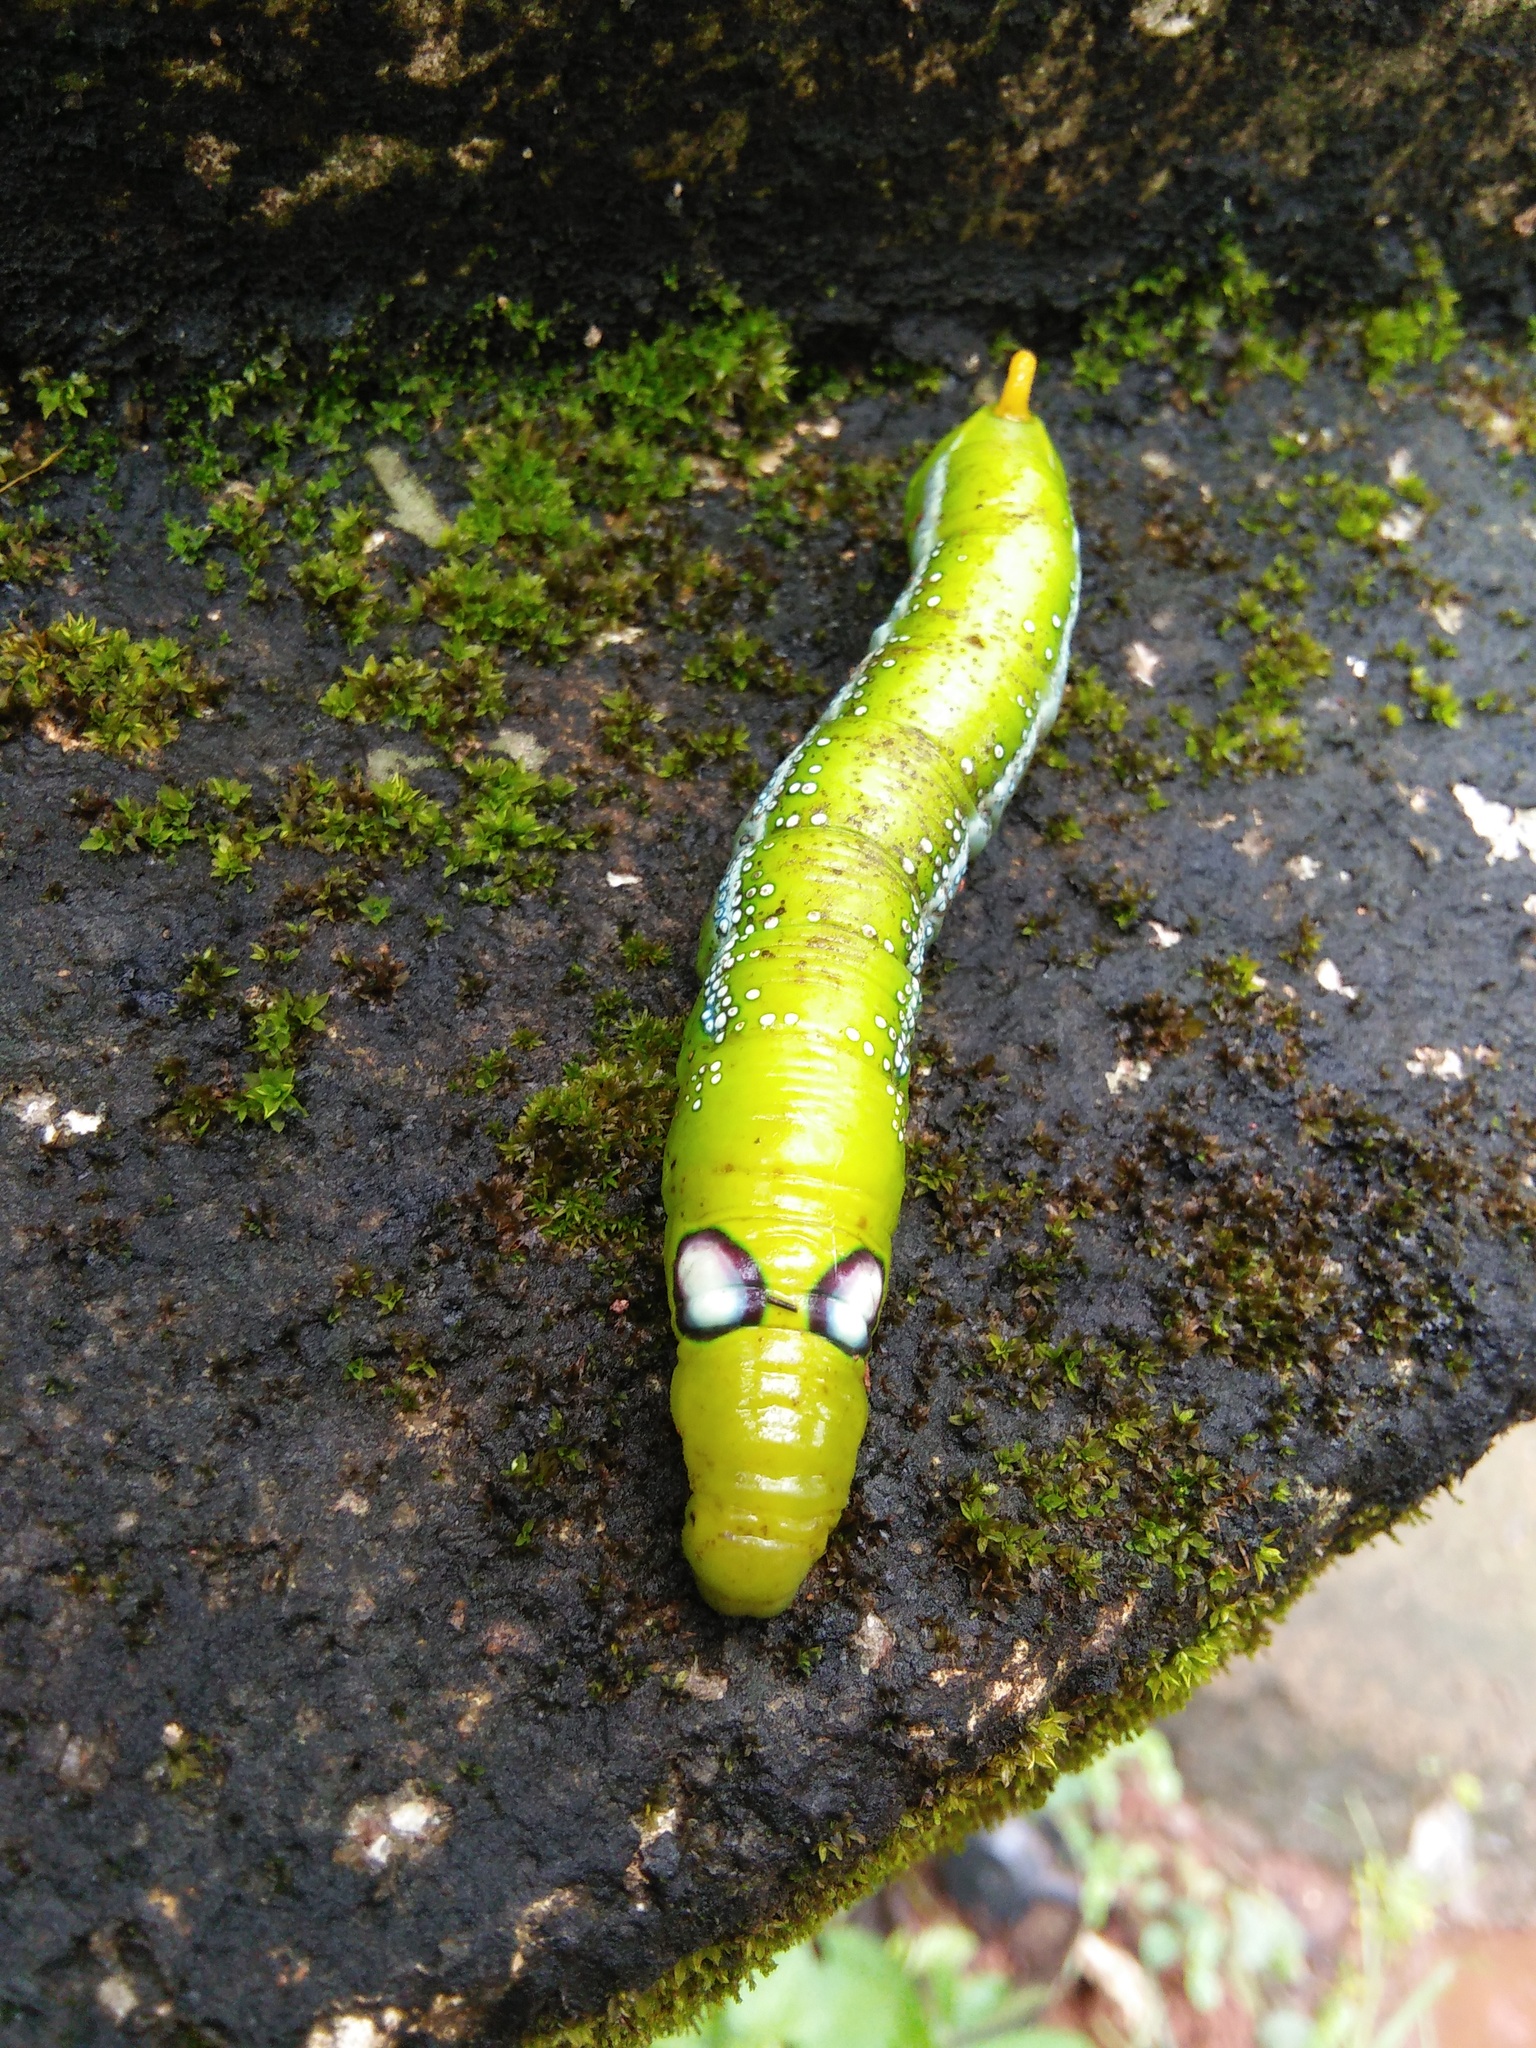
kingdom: Animalia
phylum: Arthropoda
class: Insecta
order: Lepidoptera
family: Sphingidae
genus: Daphnis
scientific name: Daphnis nerii
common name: Oleander hawk-moth
